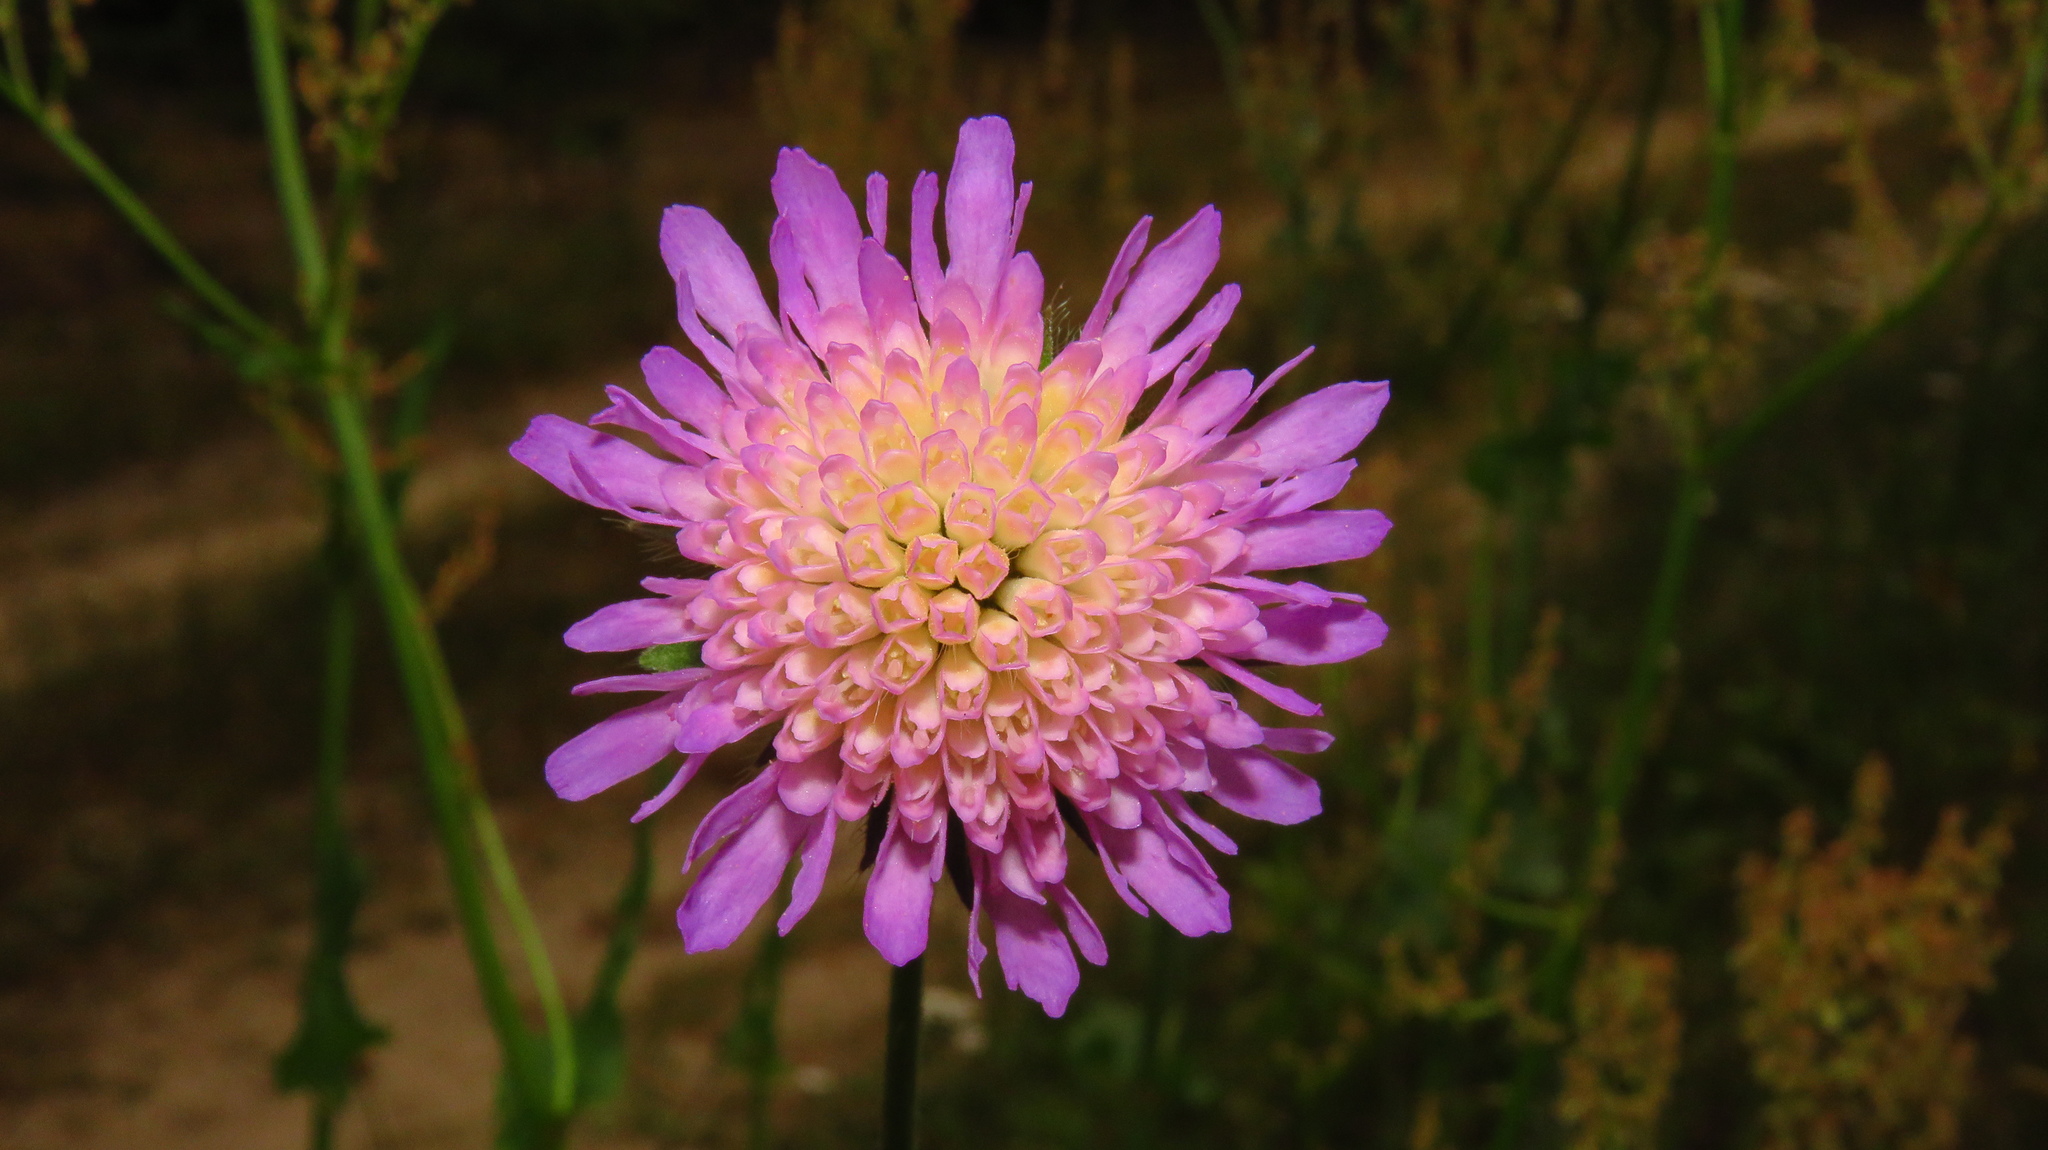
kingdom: Plantae
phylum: Tracheophyta
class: Magnoliopsida
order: Dipsacales
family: Caprifoliaceae
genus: Knautia
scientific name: Knautia arvensis
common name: Field scabiosa
